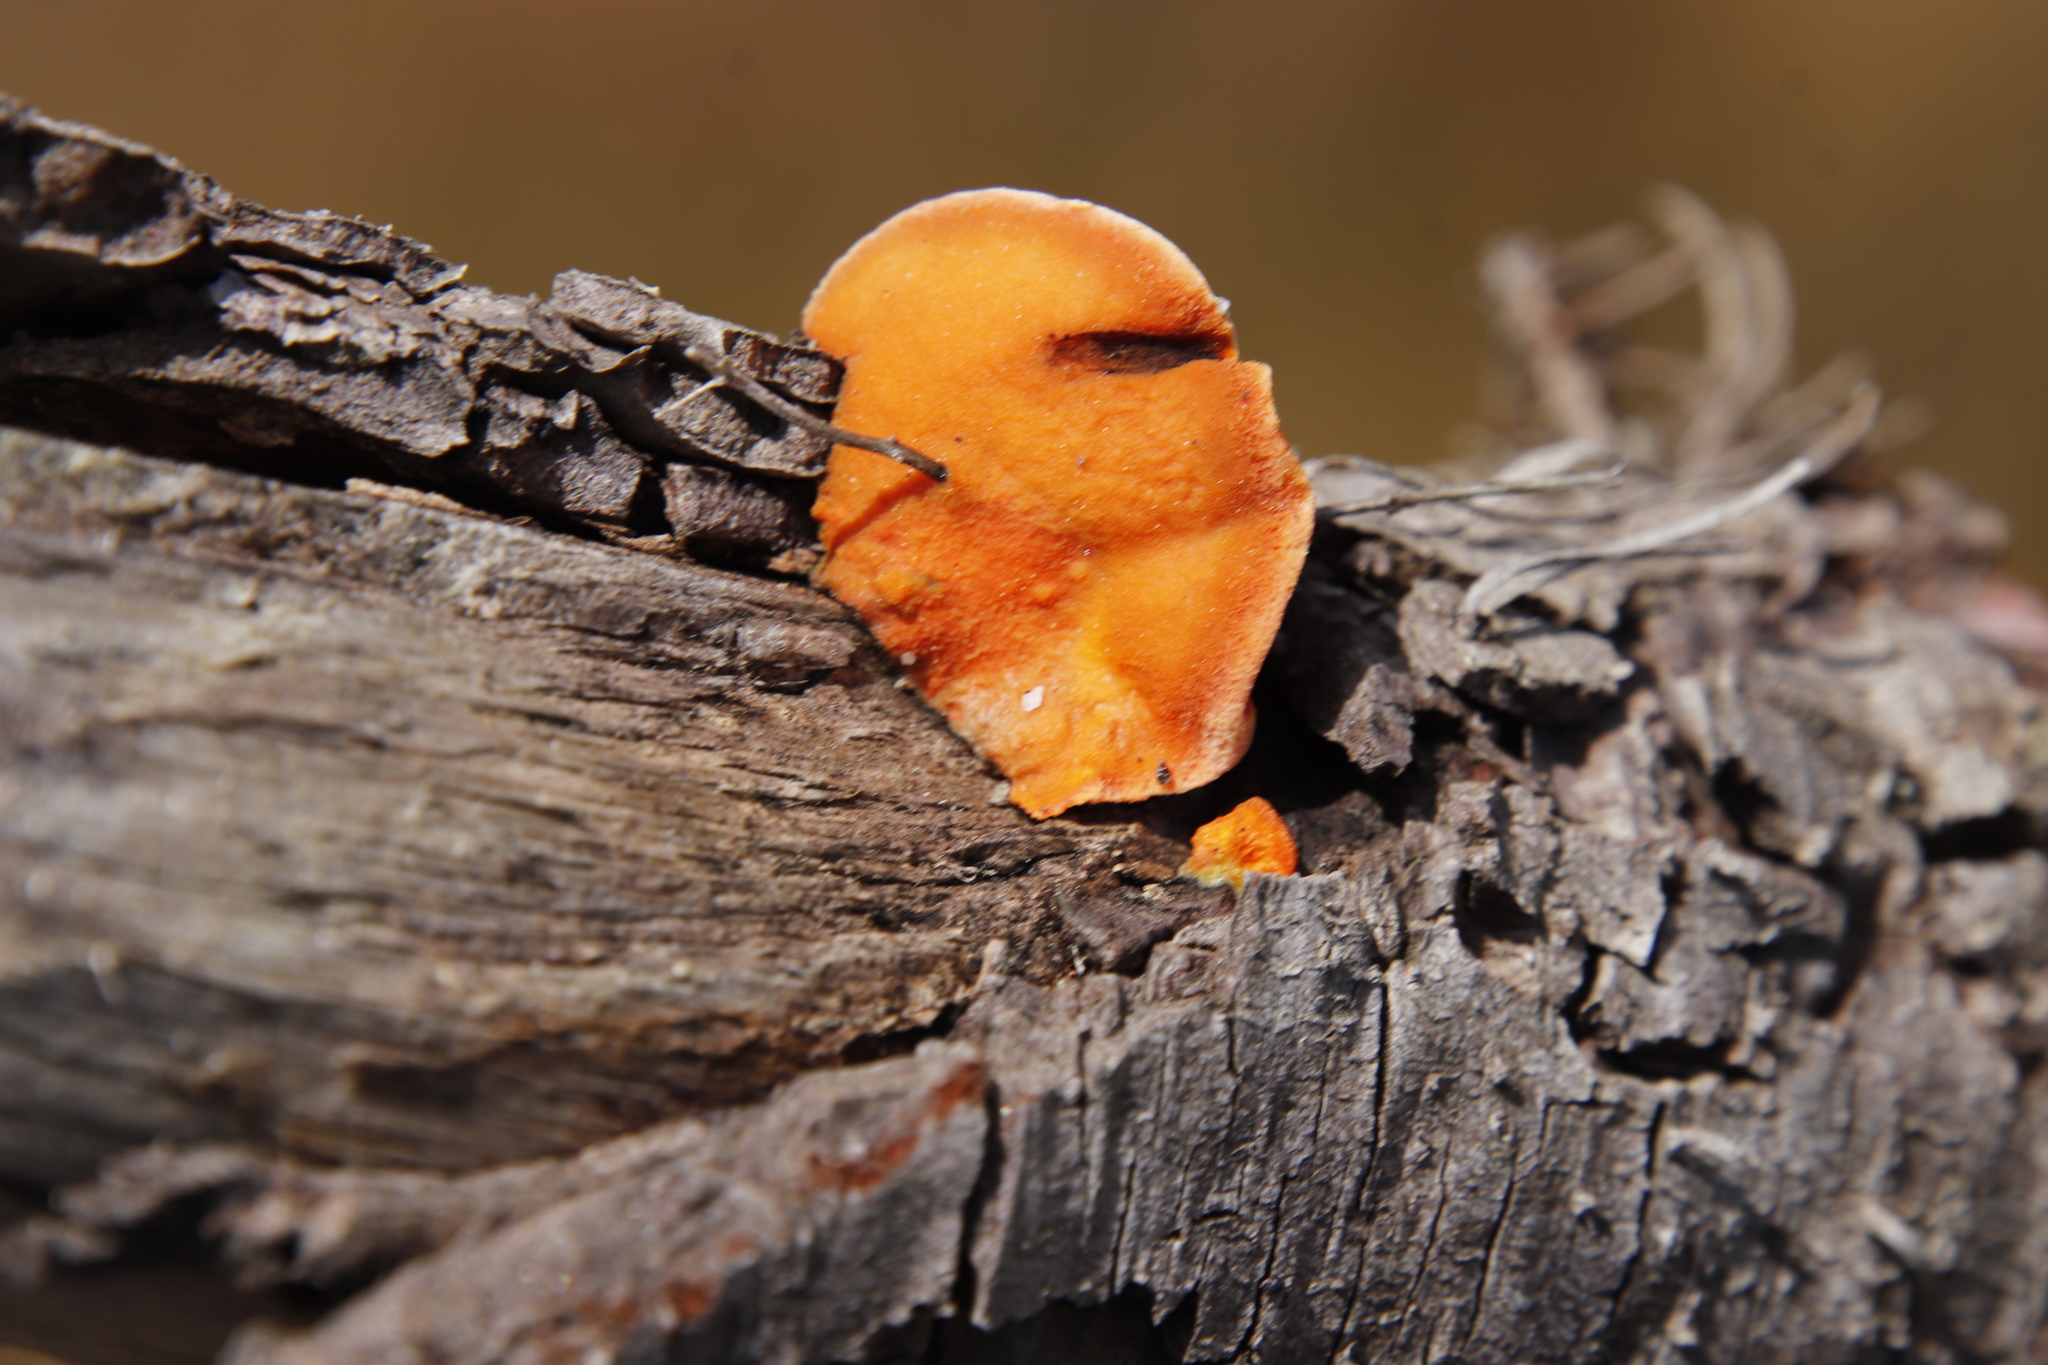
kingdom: Fungi
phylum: Basidiomycota
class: Agaricomycetes
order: Polyporales
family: Polyporaceae
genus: Trametes
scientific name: Trametes coccinea
